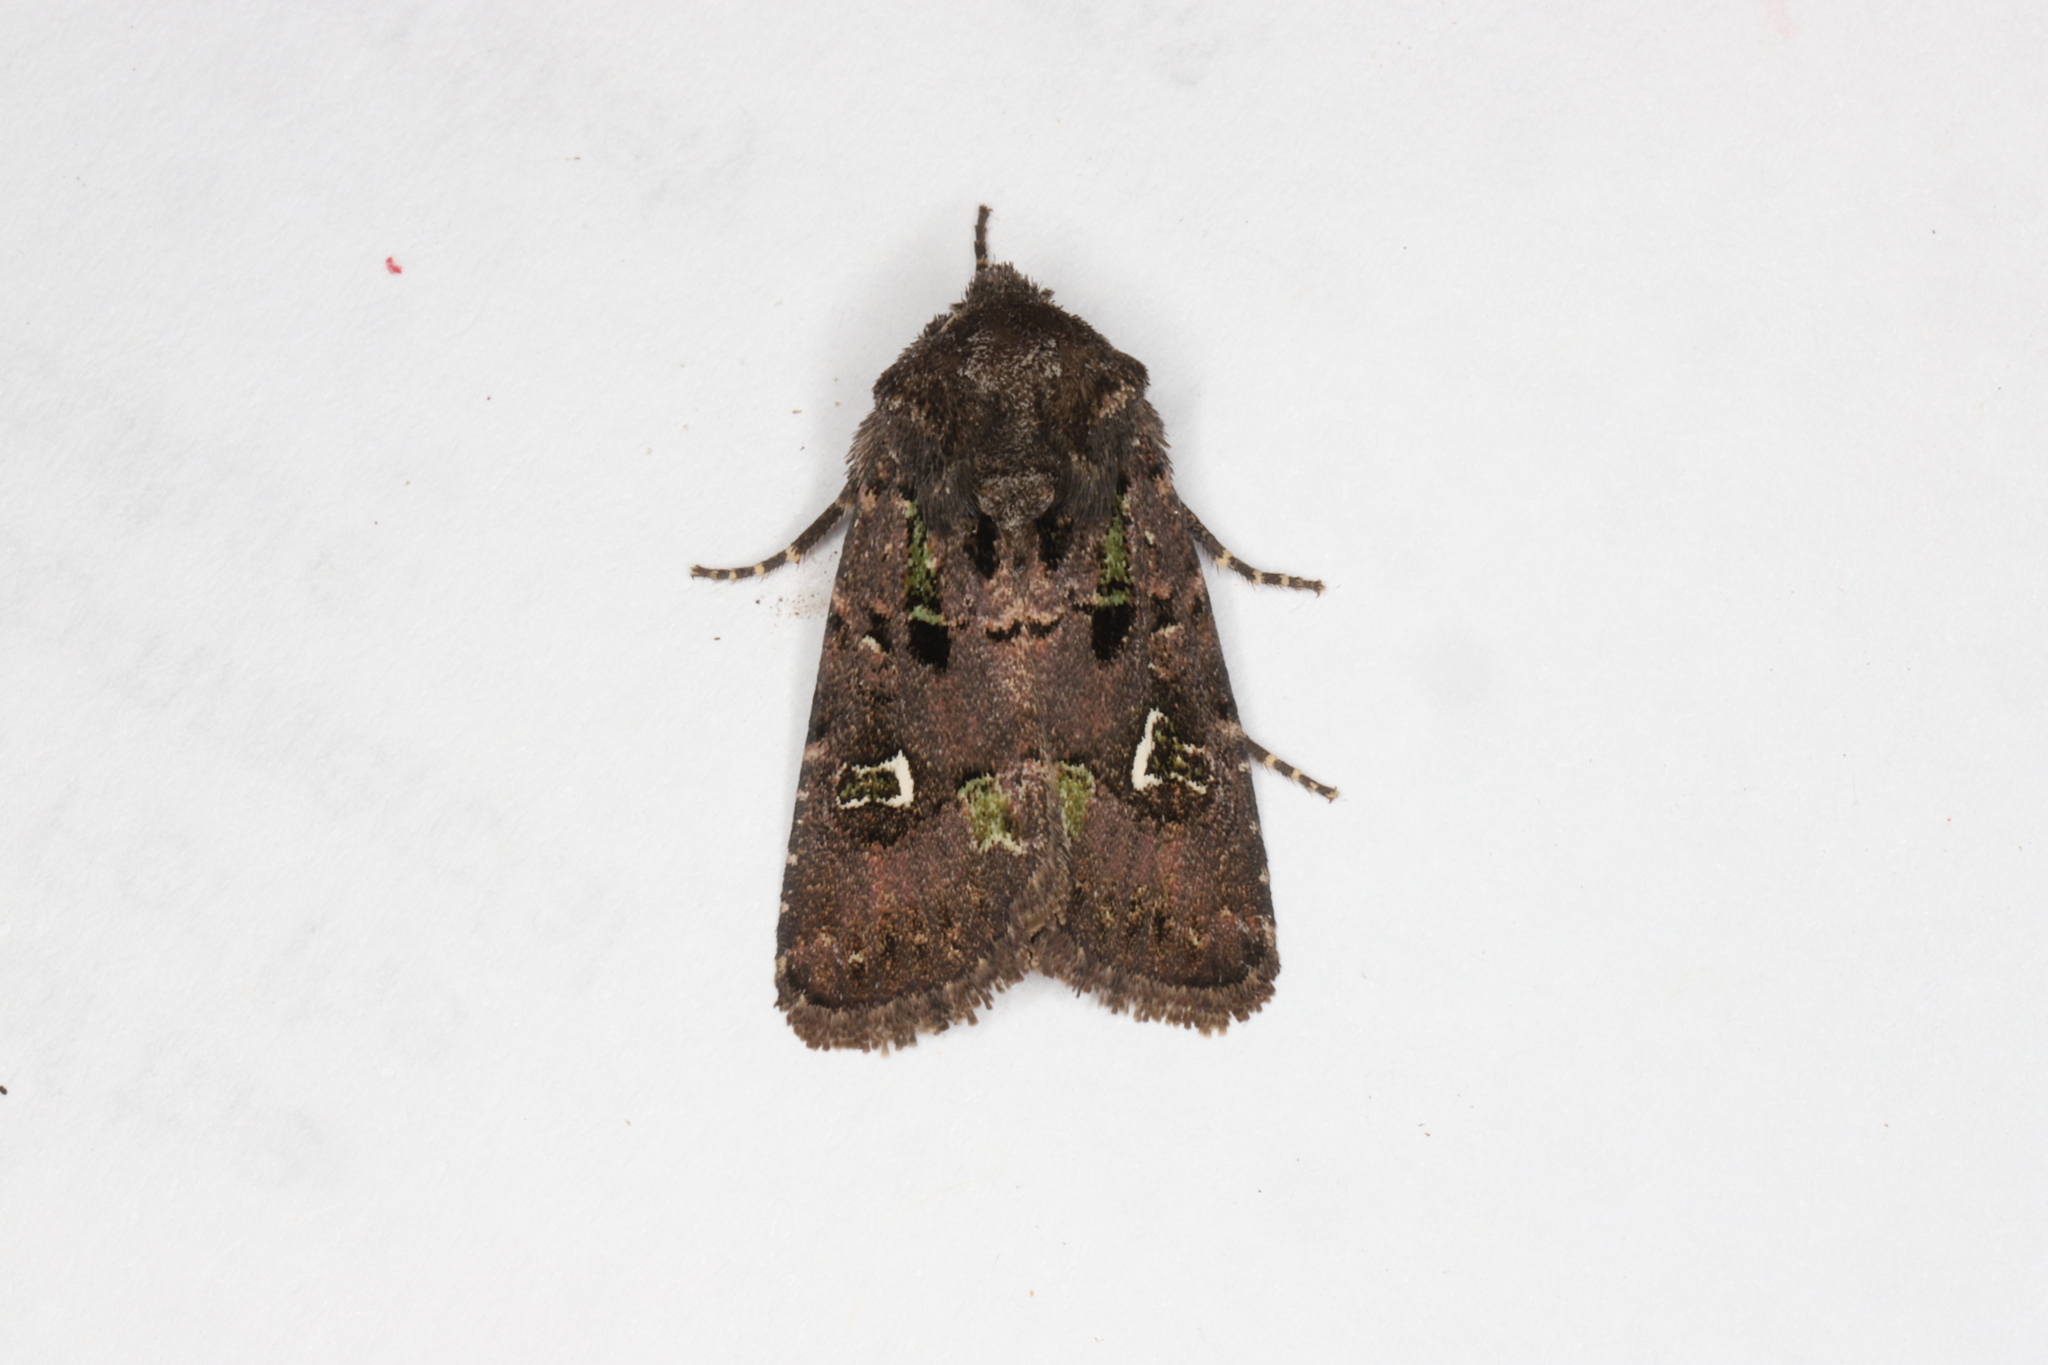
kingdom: Animalia
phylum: Arthropoda
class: Insecta
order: Lepidoptera
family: Noctuidae
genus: Lacinipolia
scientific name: Lacinipolia renigera
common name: Kidney-spotted minor
